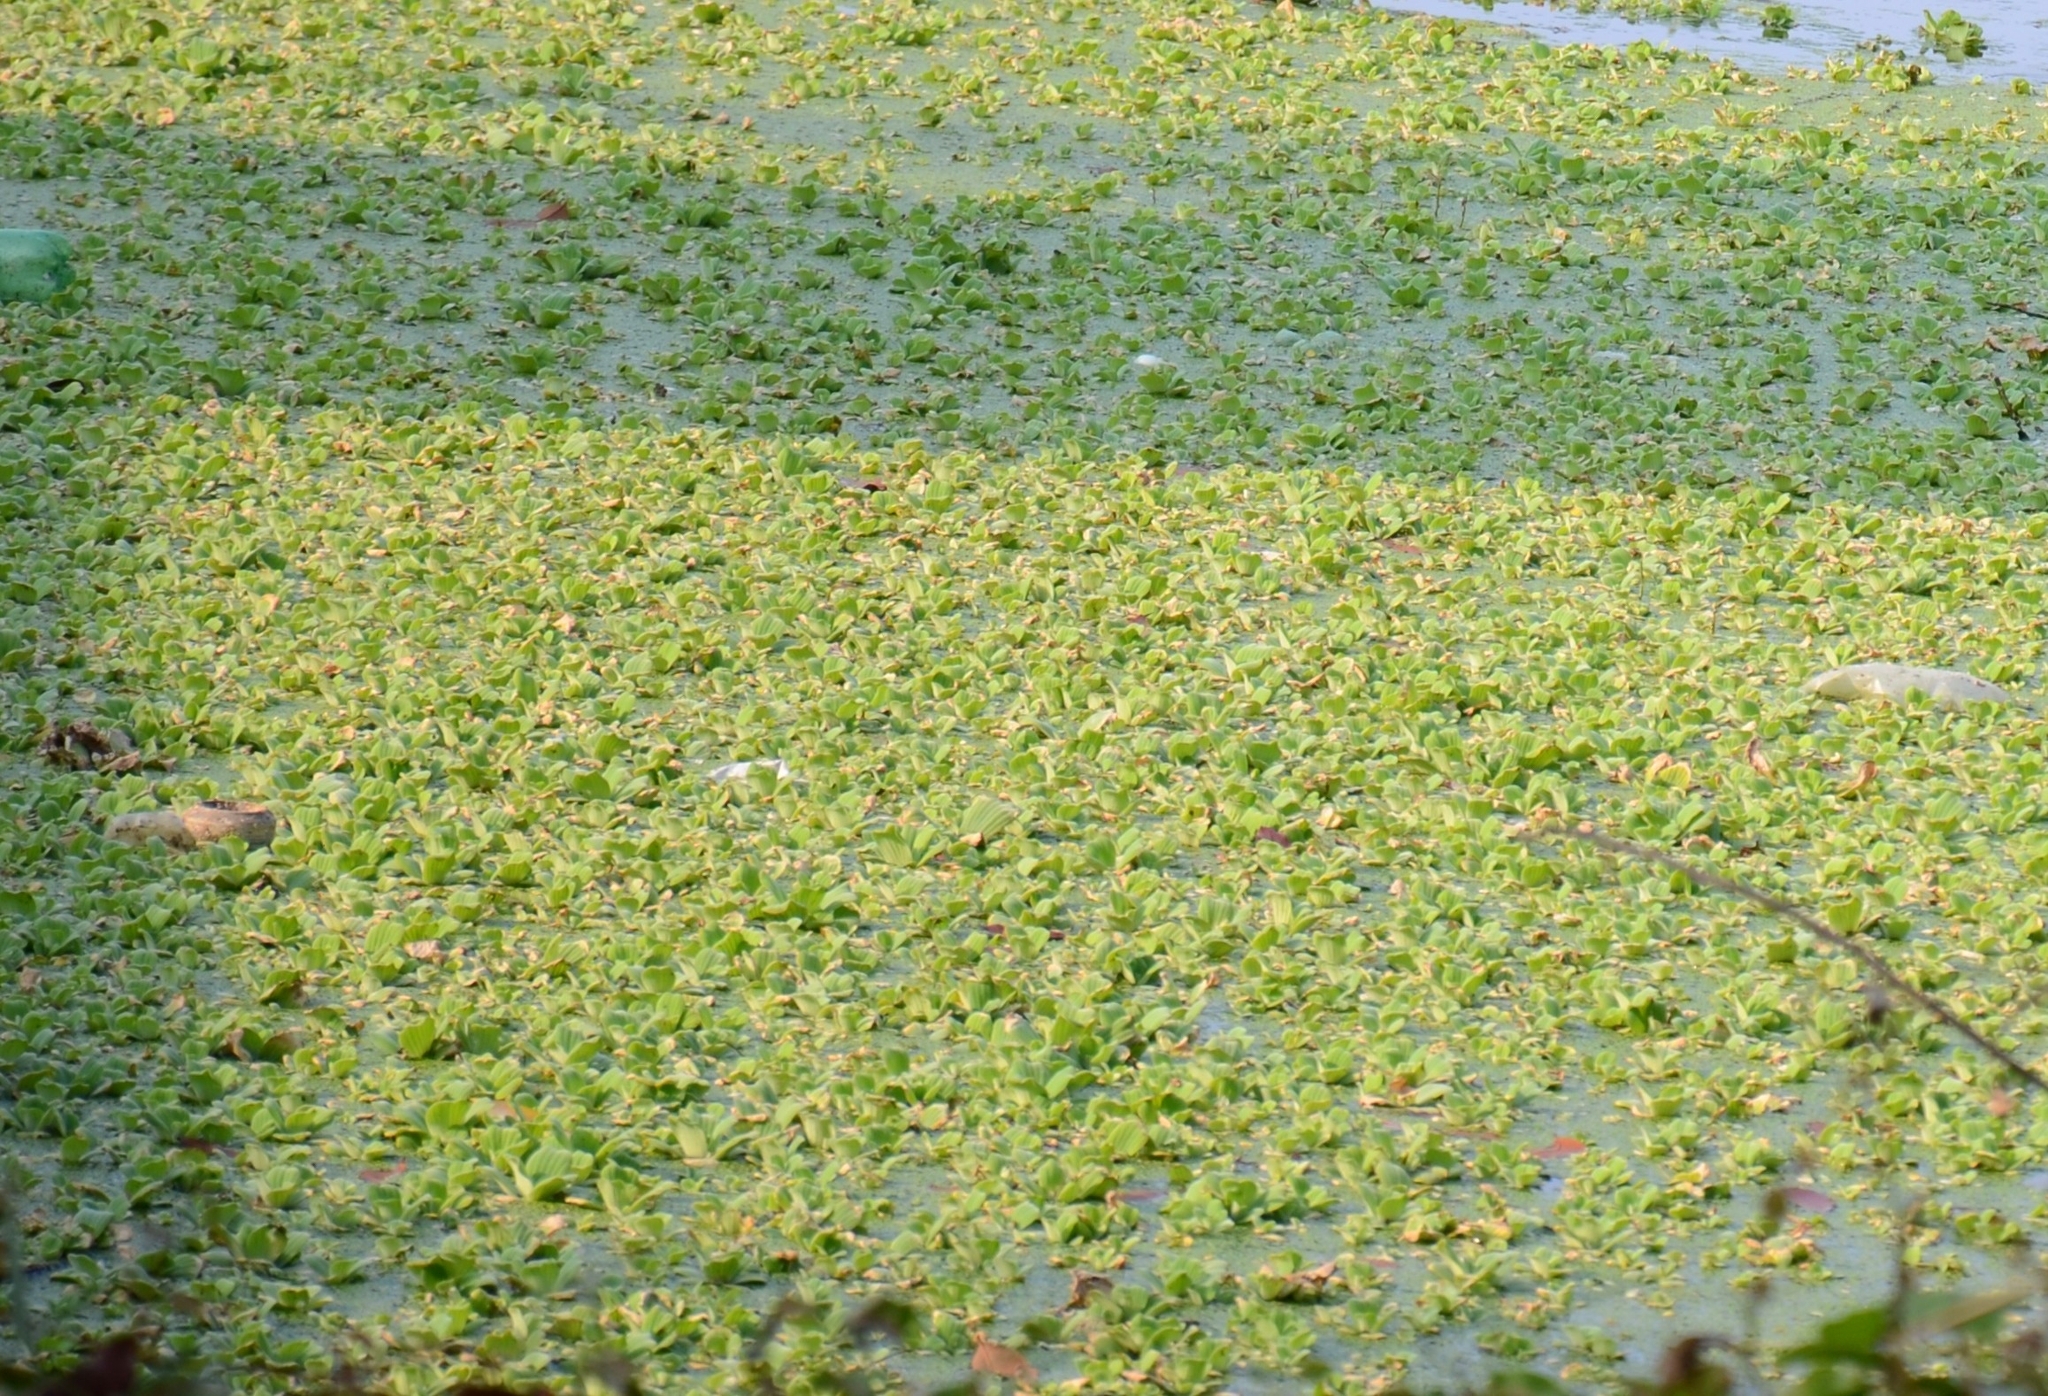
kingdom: Plantae
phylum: Tracheophyta
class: Liliopsida
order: Alismatales
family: Araceae
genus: Pistia
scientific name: Pistia stratiotes
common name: Water lettuce
